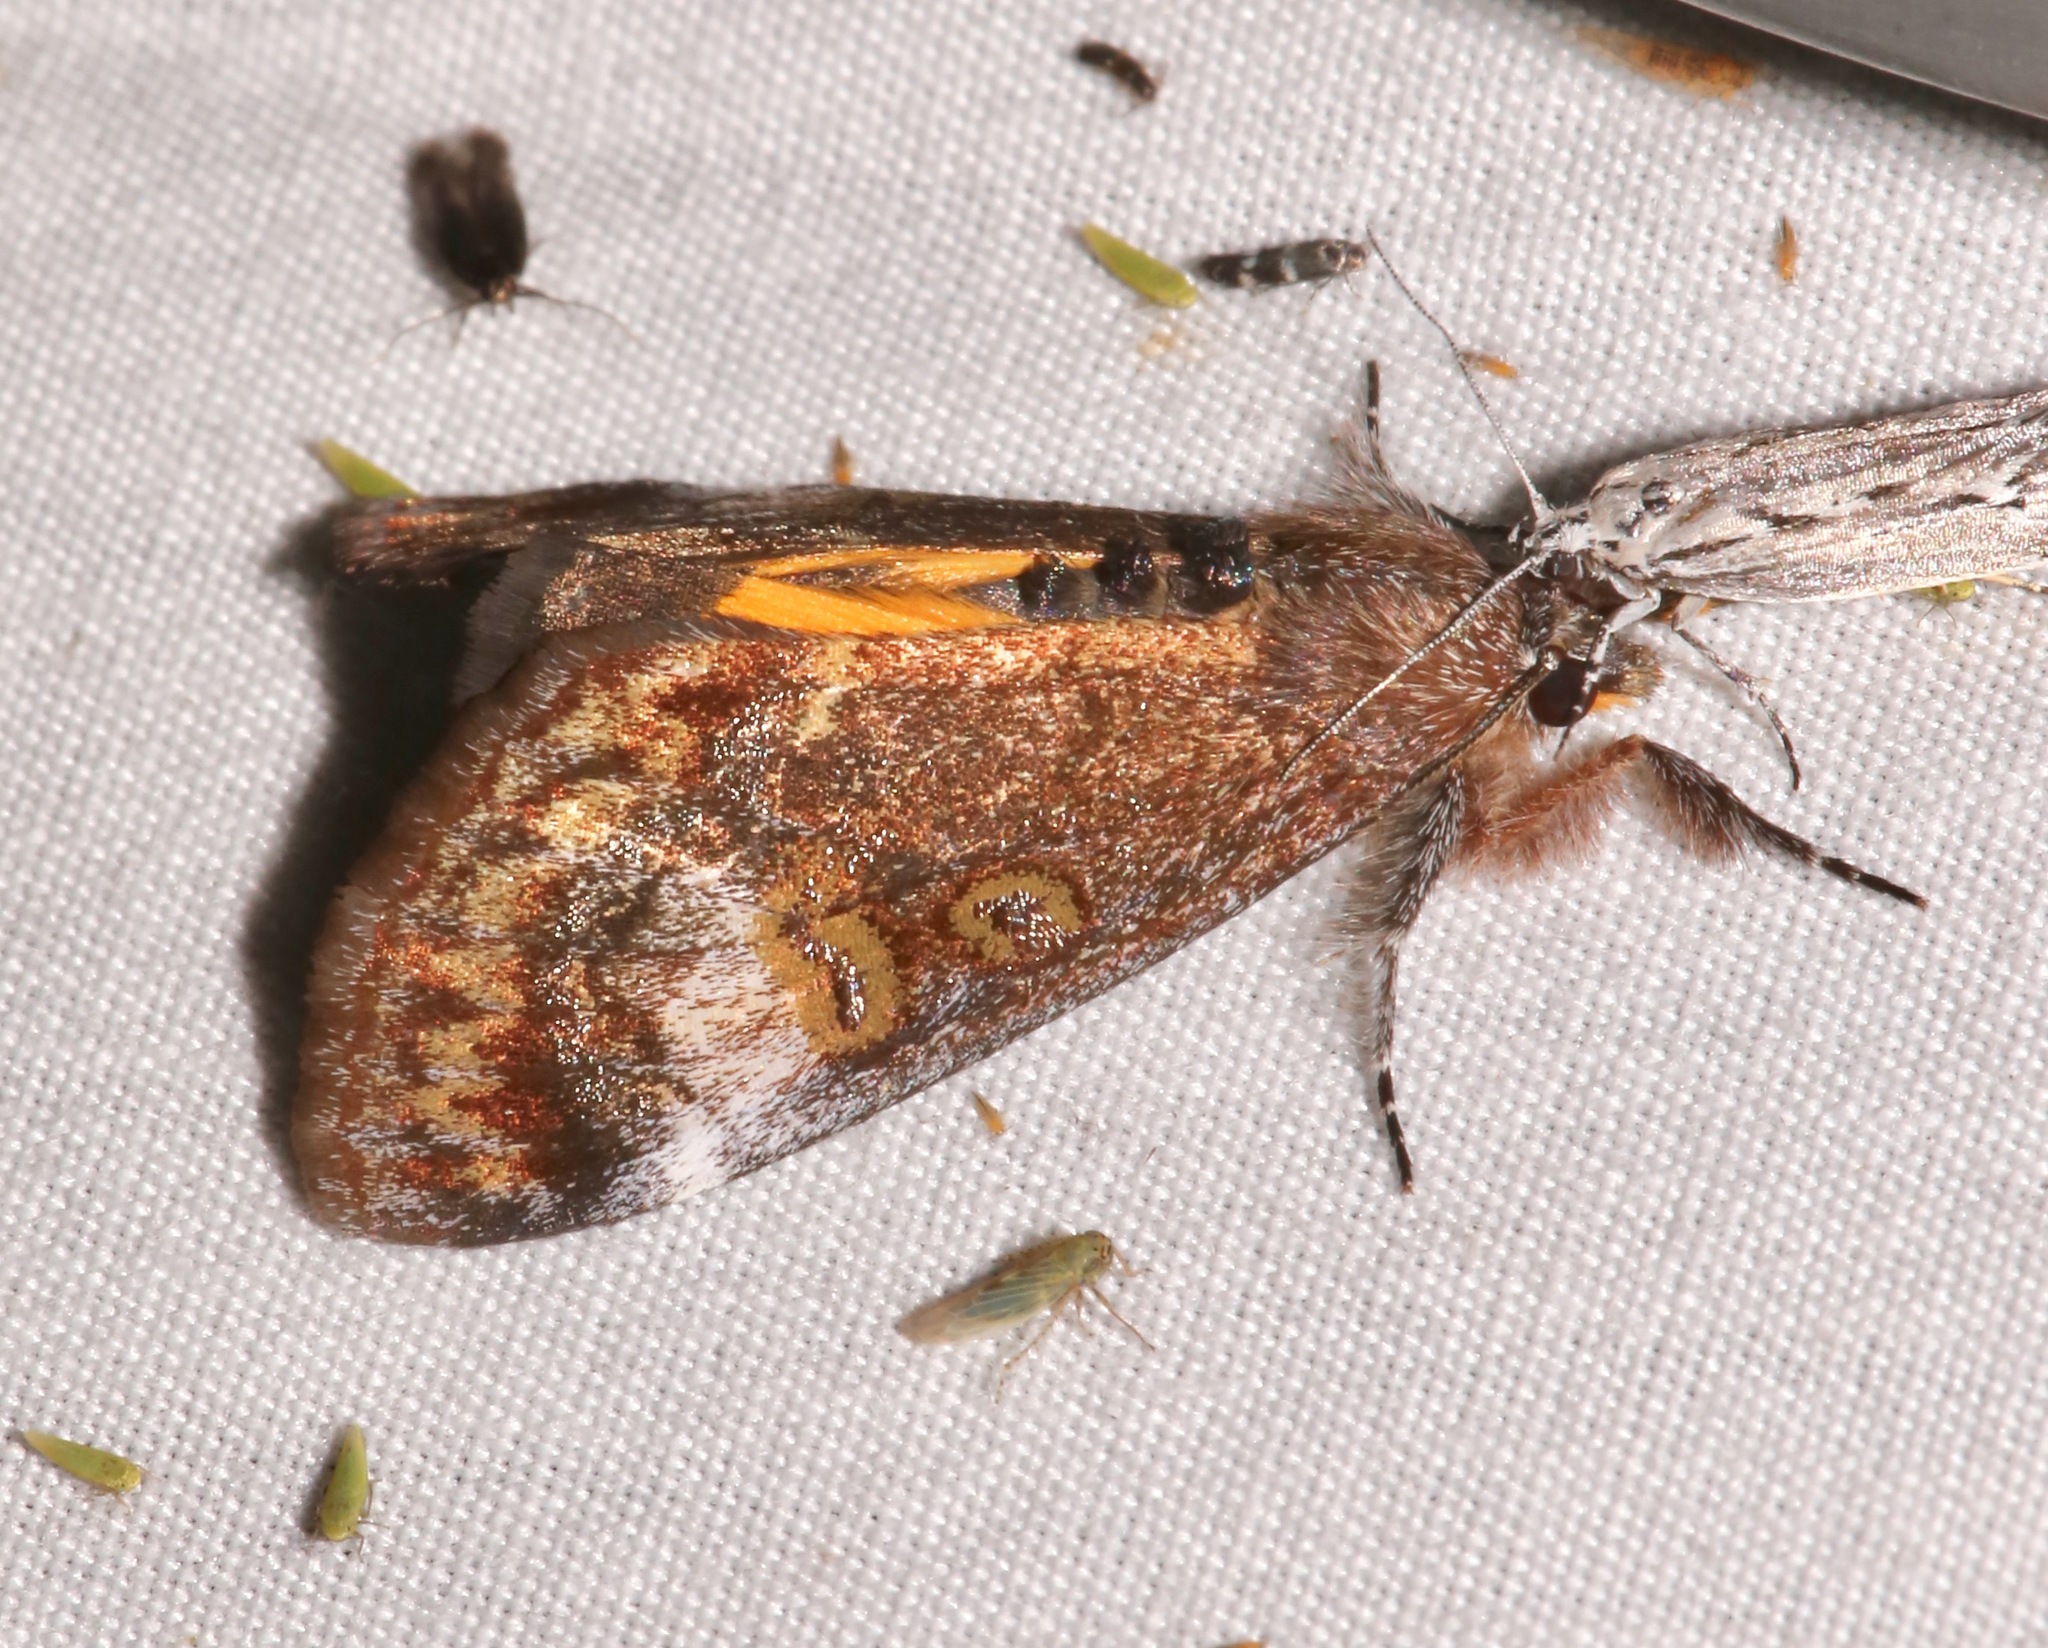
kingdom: Animalia
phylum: Arthropoda
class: Insecta
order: Lepidoptera
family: Noctuidae
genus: Gerra
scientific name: Gerra sevorsa
